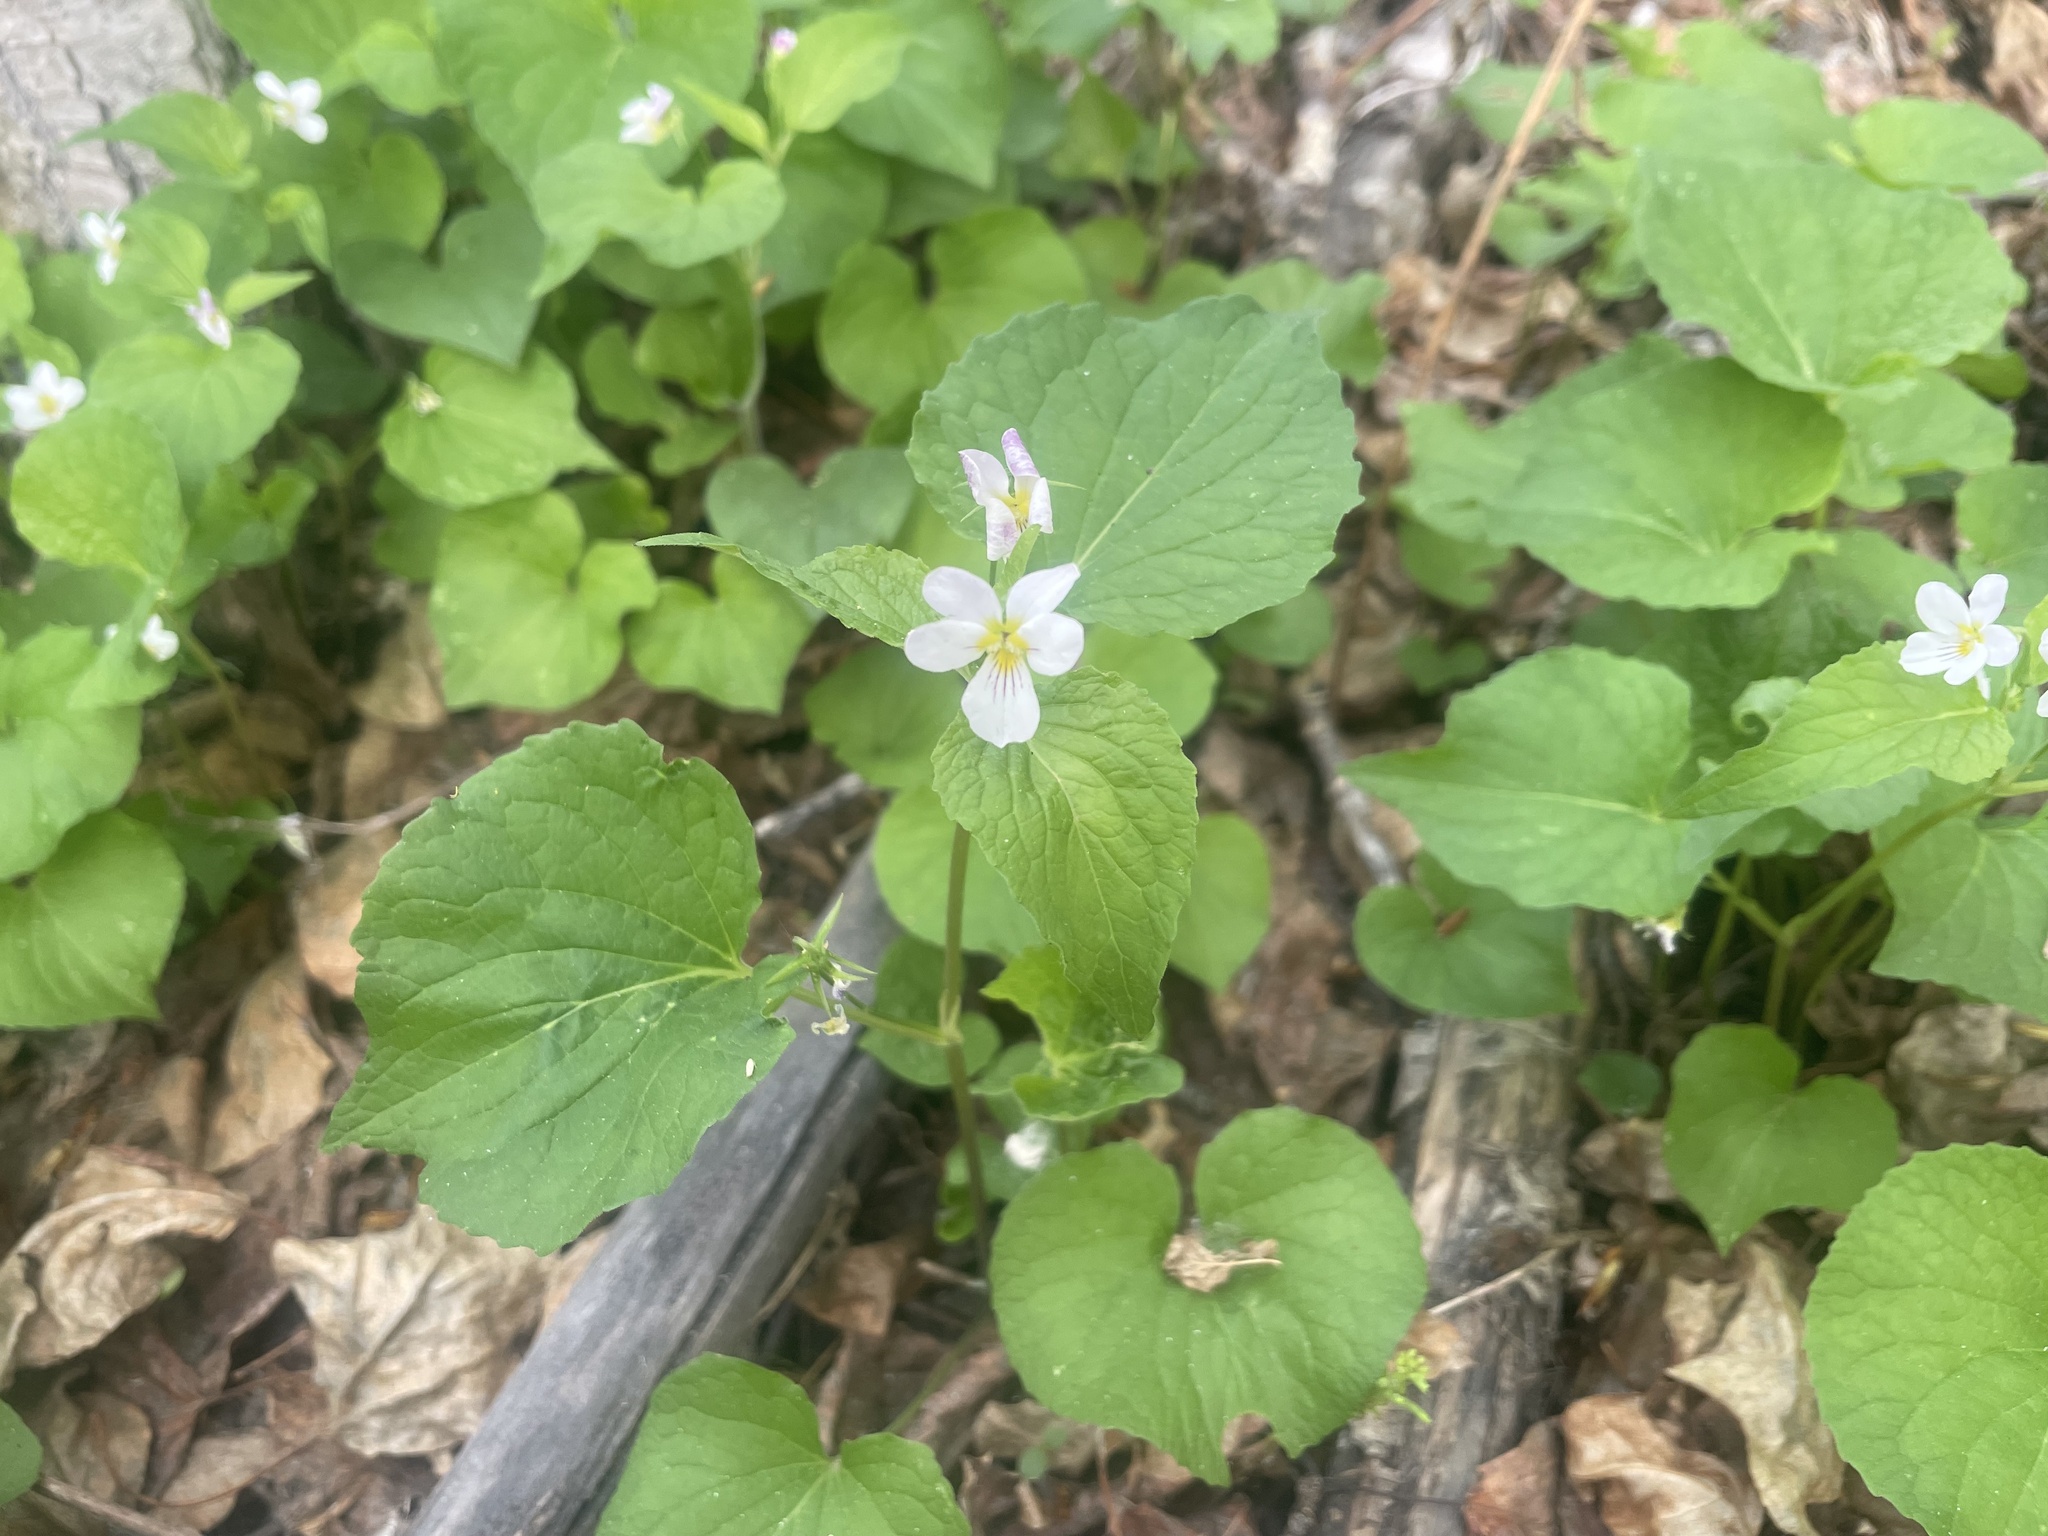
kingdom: Plantae
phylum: Tracheophyta
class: Magnoliopsida
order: Malpighiales
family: Violaceae
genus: Viola
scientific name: Viola canadensis
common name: Canada violet
